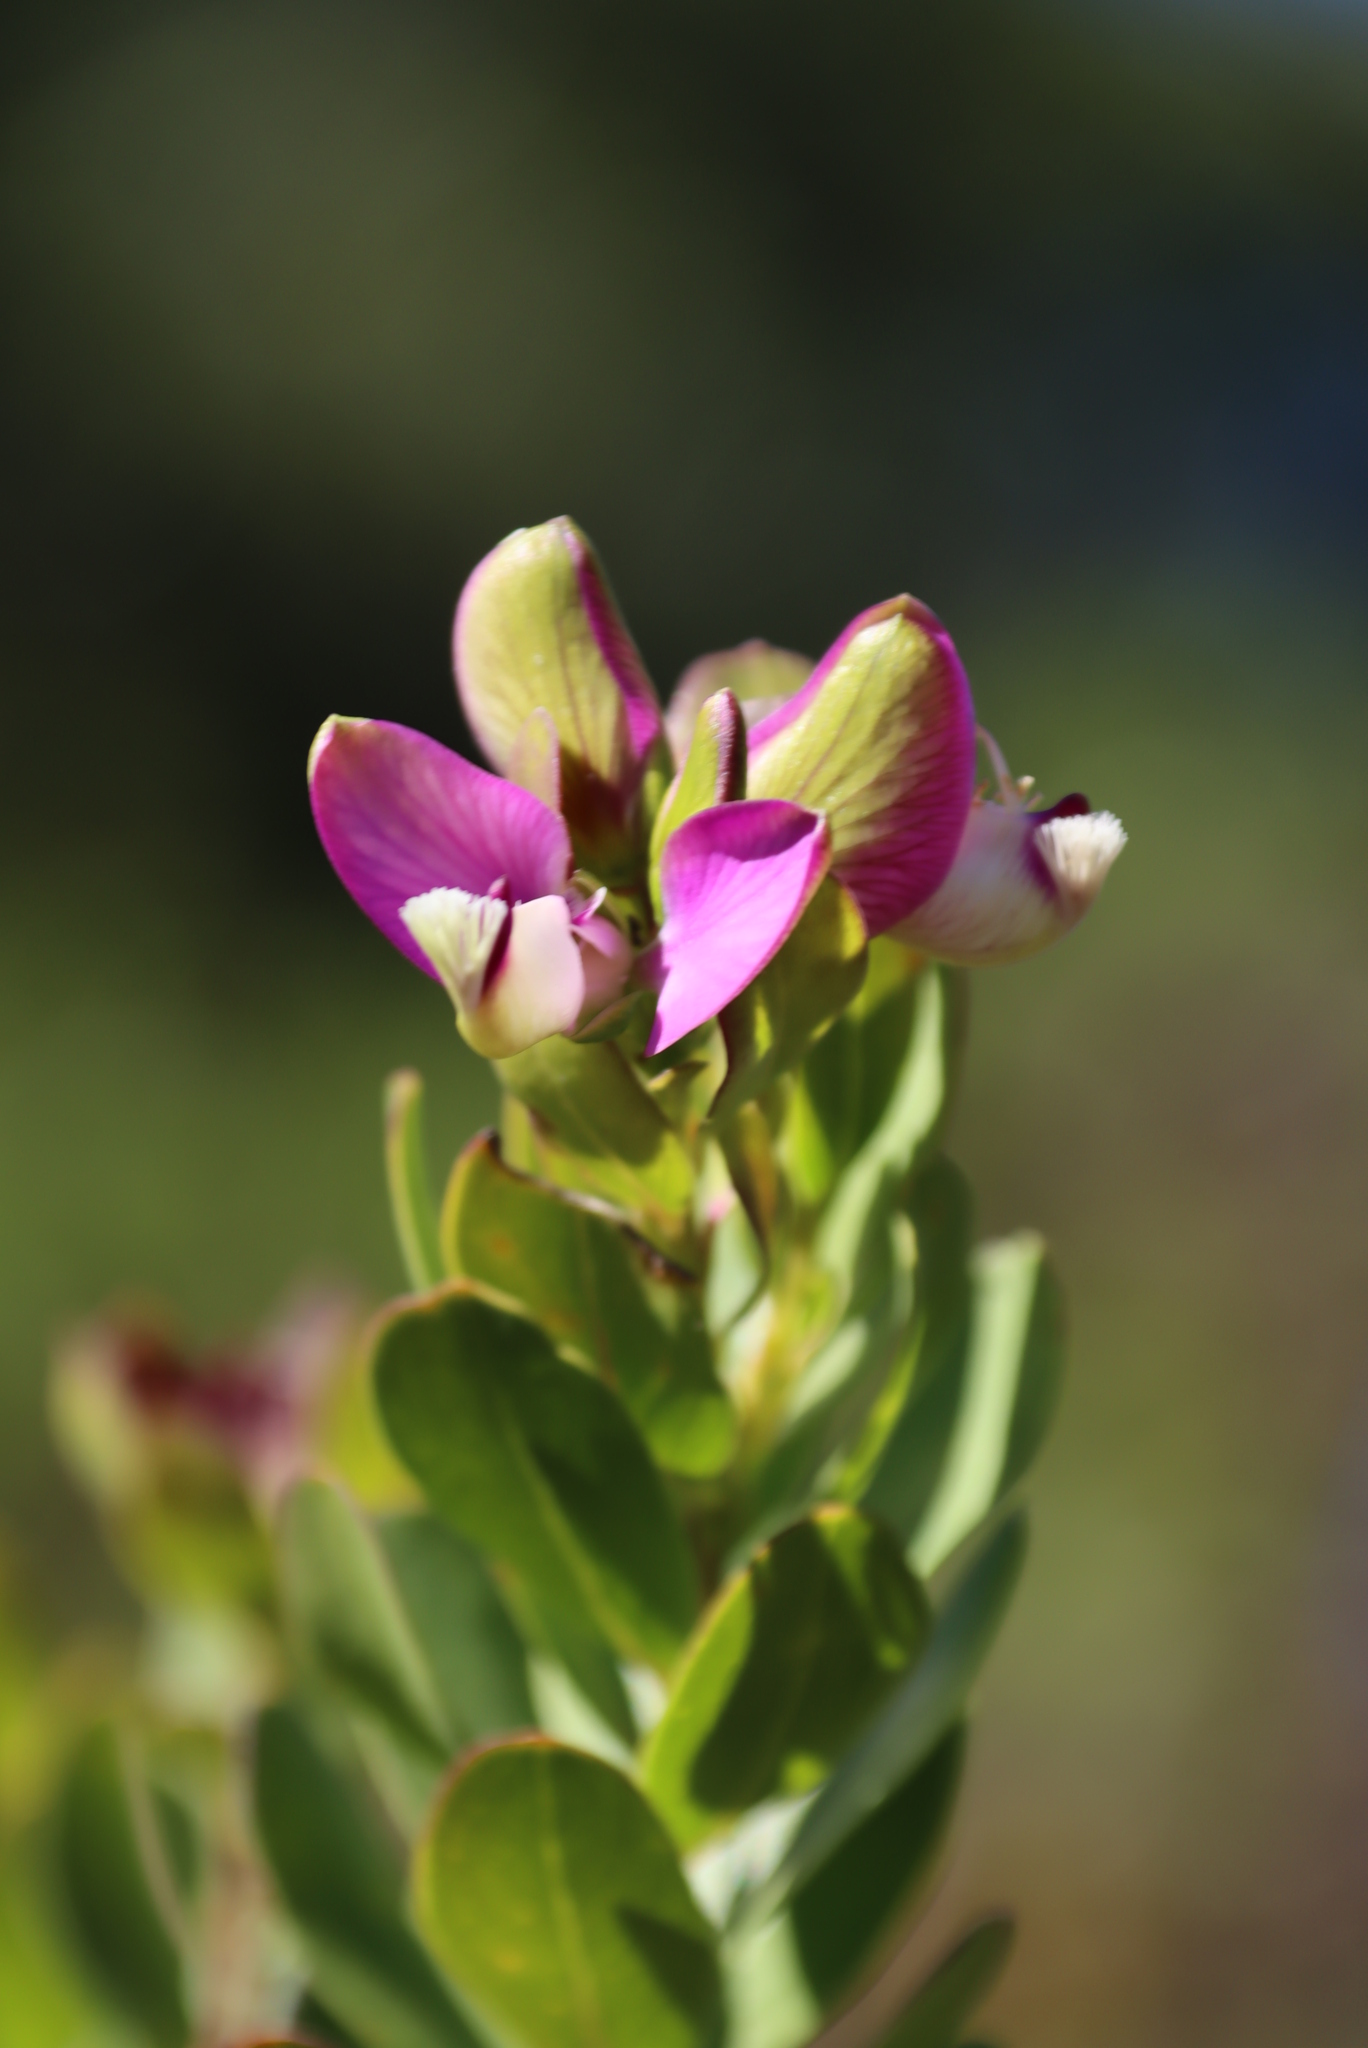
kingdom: Plantae
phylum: Tracheophyta
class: Magnoliopsida
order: Fabales
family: Polygalaceae
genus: Polygala
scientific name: Polygala myrtifolia
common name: Myrtle-leaf milkwort
